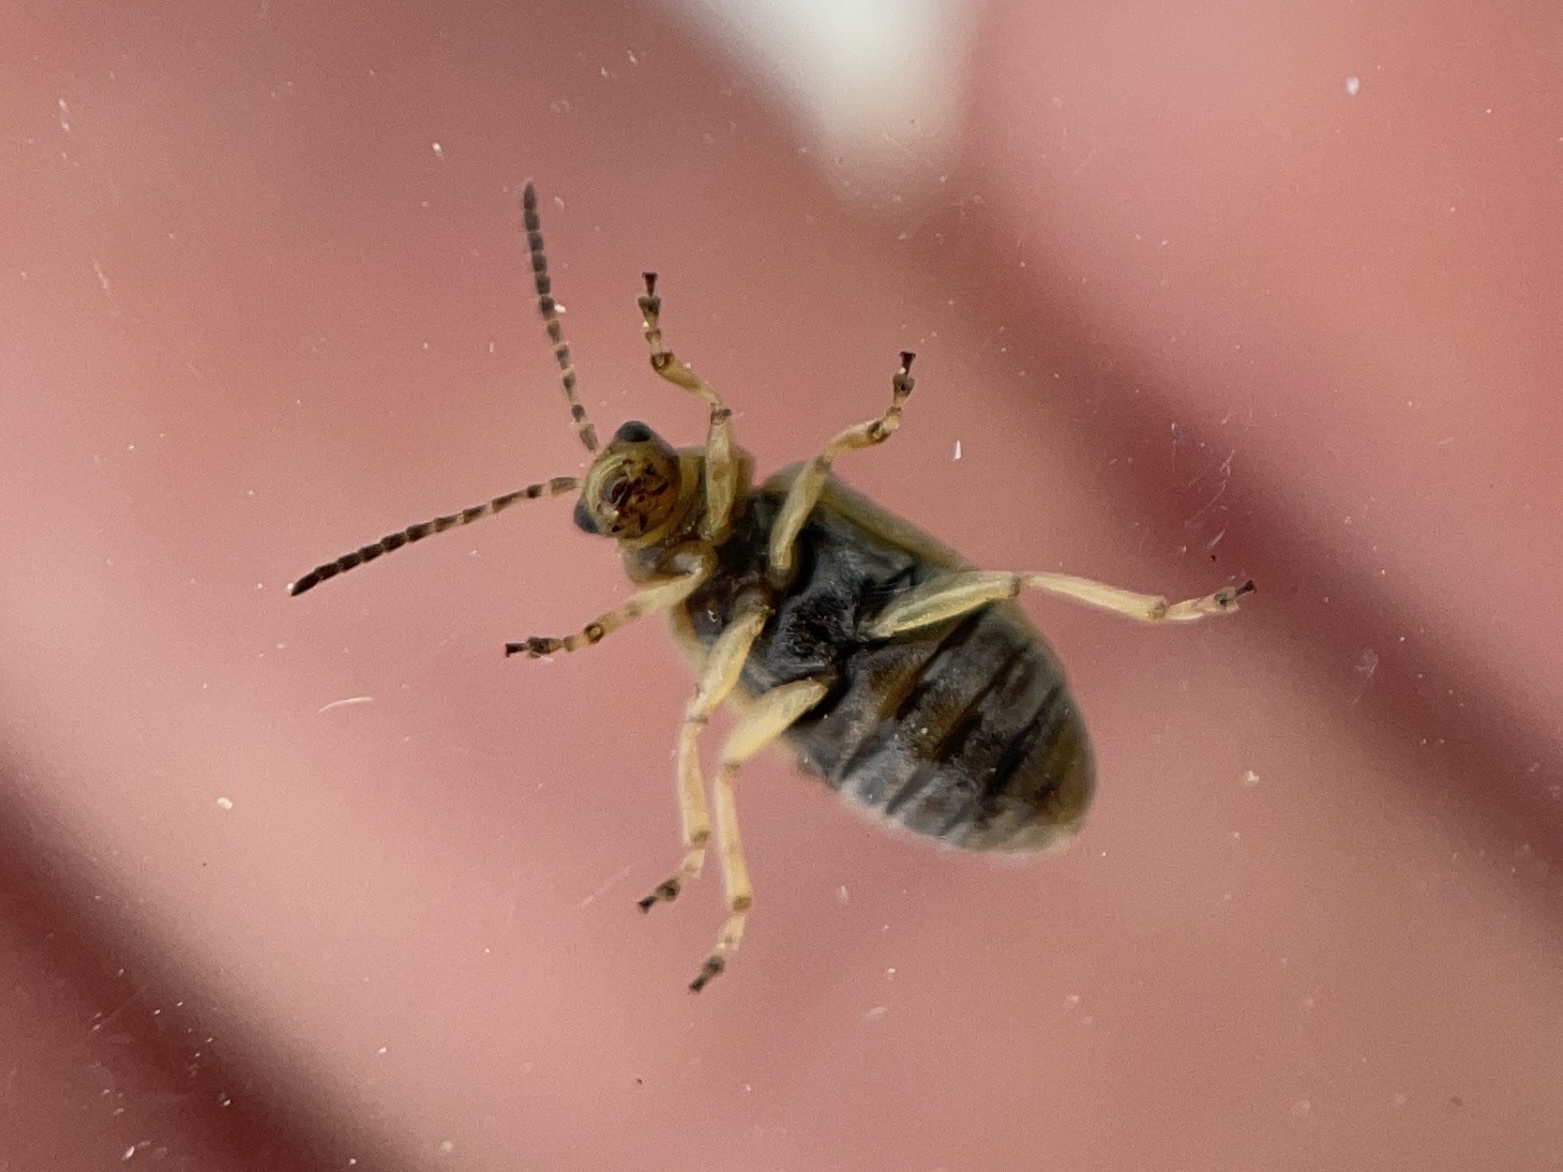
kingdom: Animalia
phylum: Arthropoda
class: Insecta
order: Coleoptera
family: Chrysomelidae
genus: Ophraella
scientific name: Ophraella communa
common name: Ragweed leaf beetle
